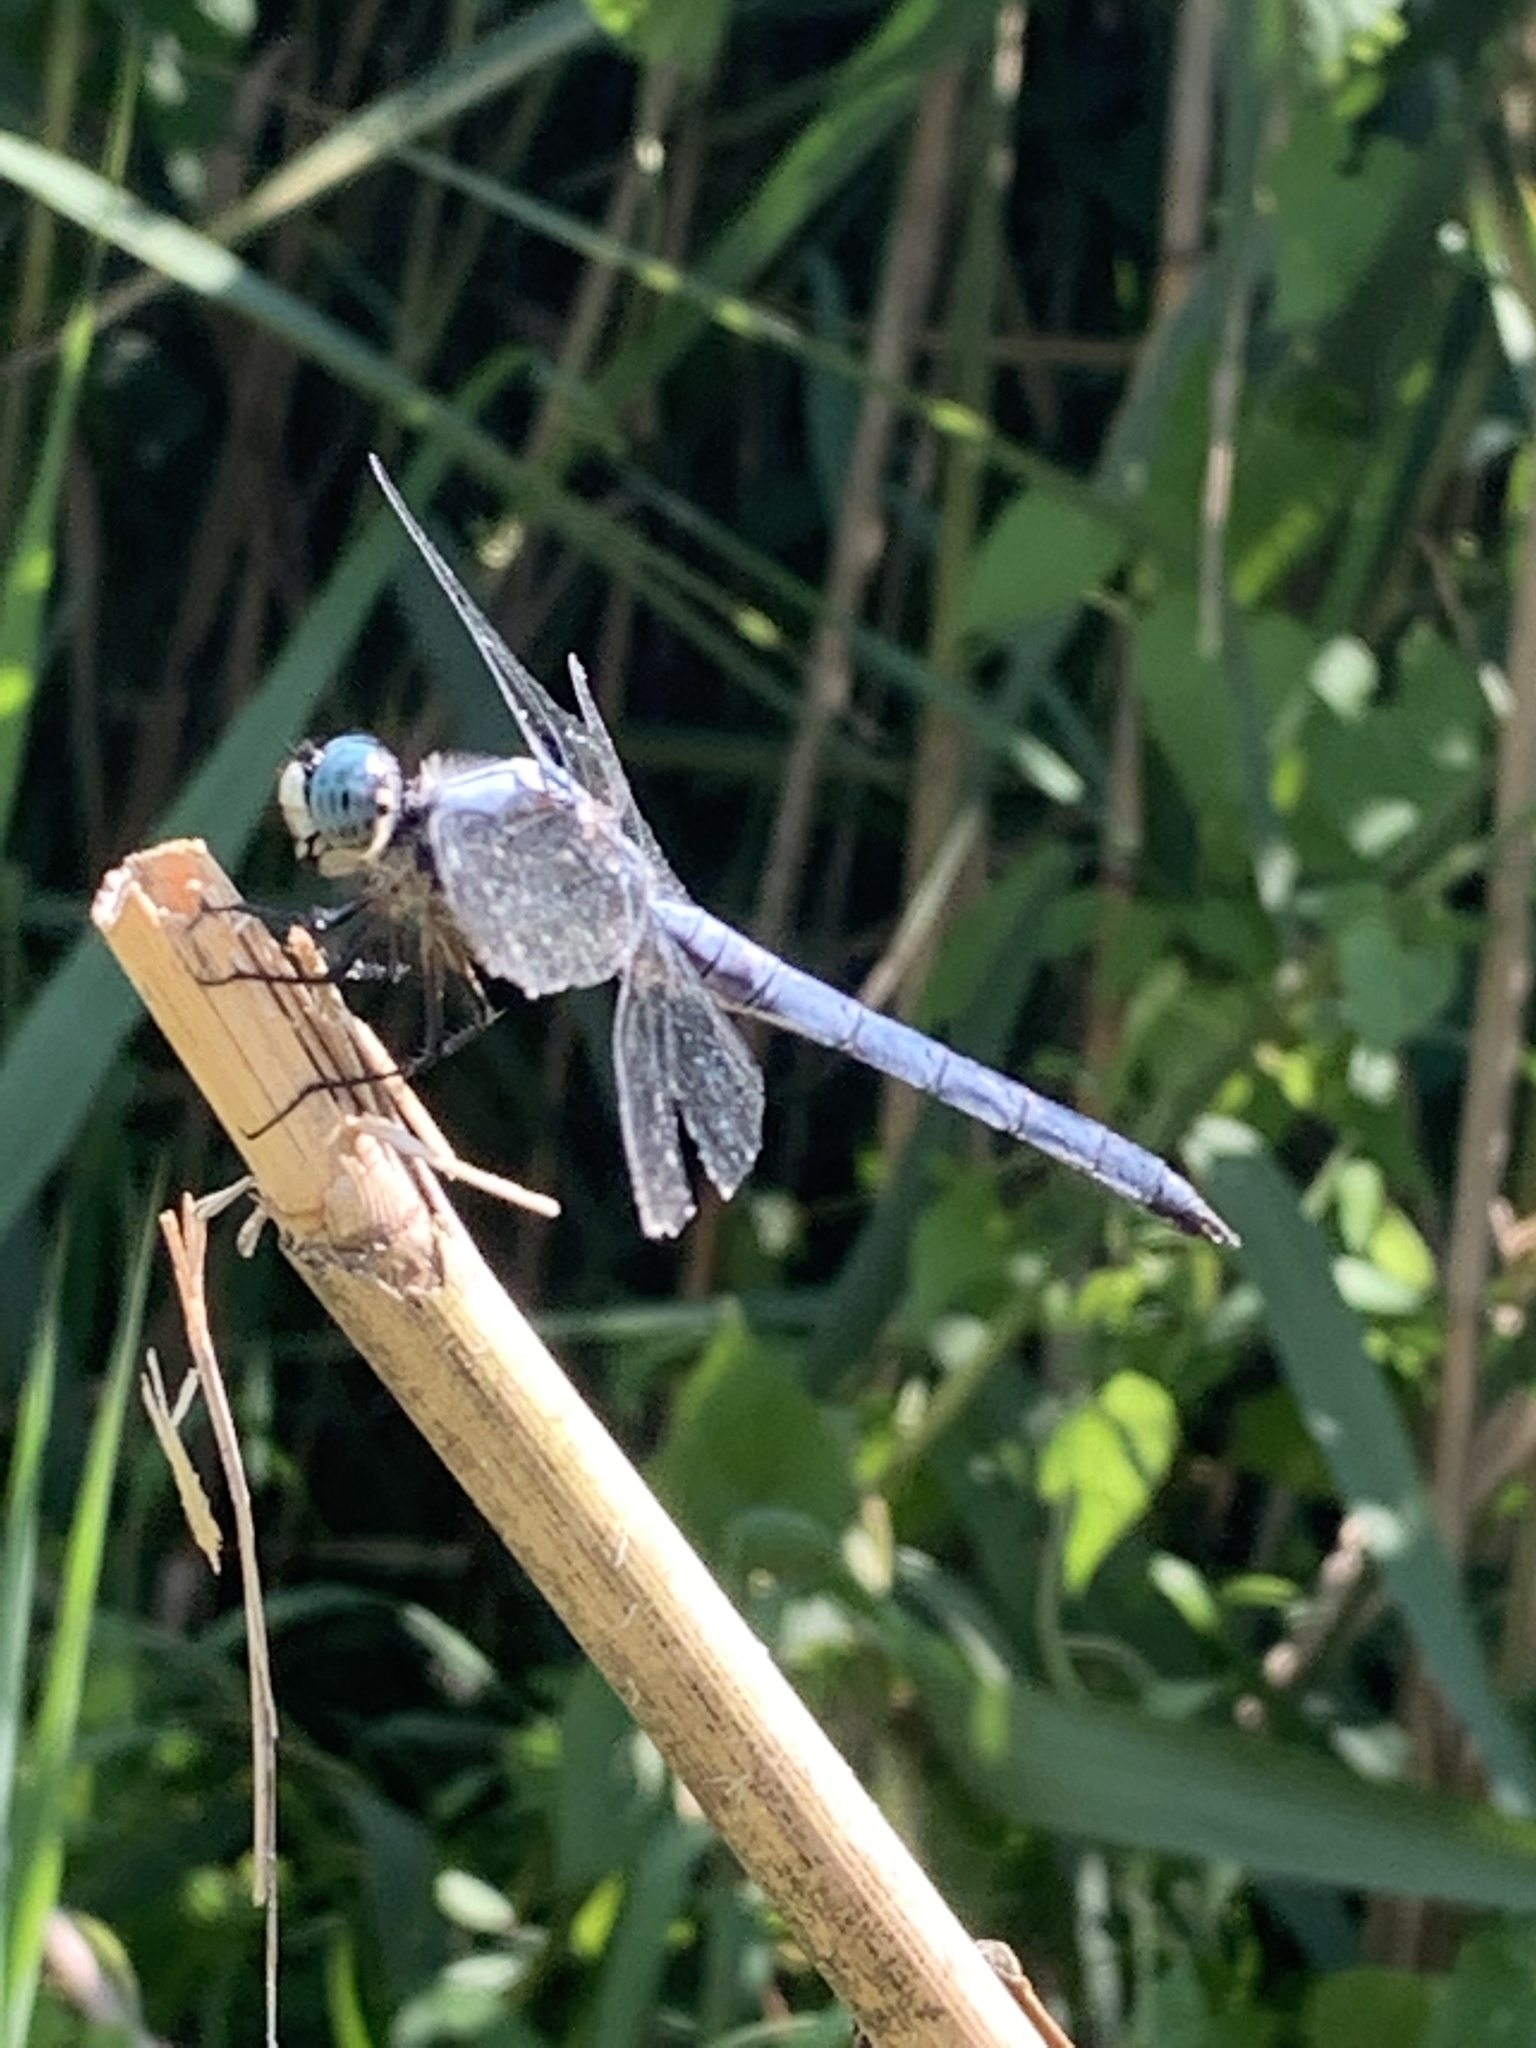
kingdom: Animalia
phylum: Arthropoda
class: Insecta
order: Odonata
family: Libellulidae
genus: Libellula
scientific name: Libellula vibrans
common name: Great blue skimmer
